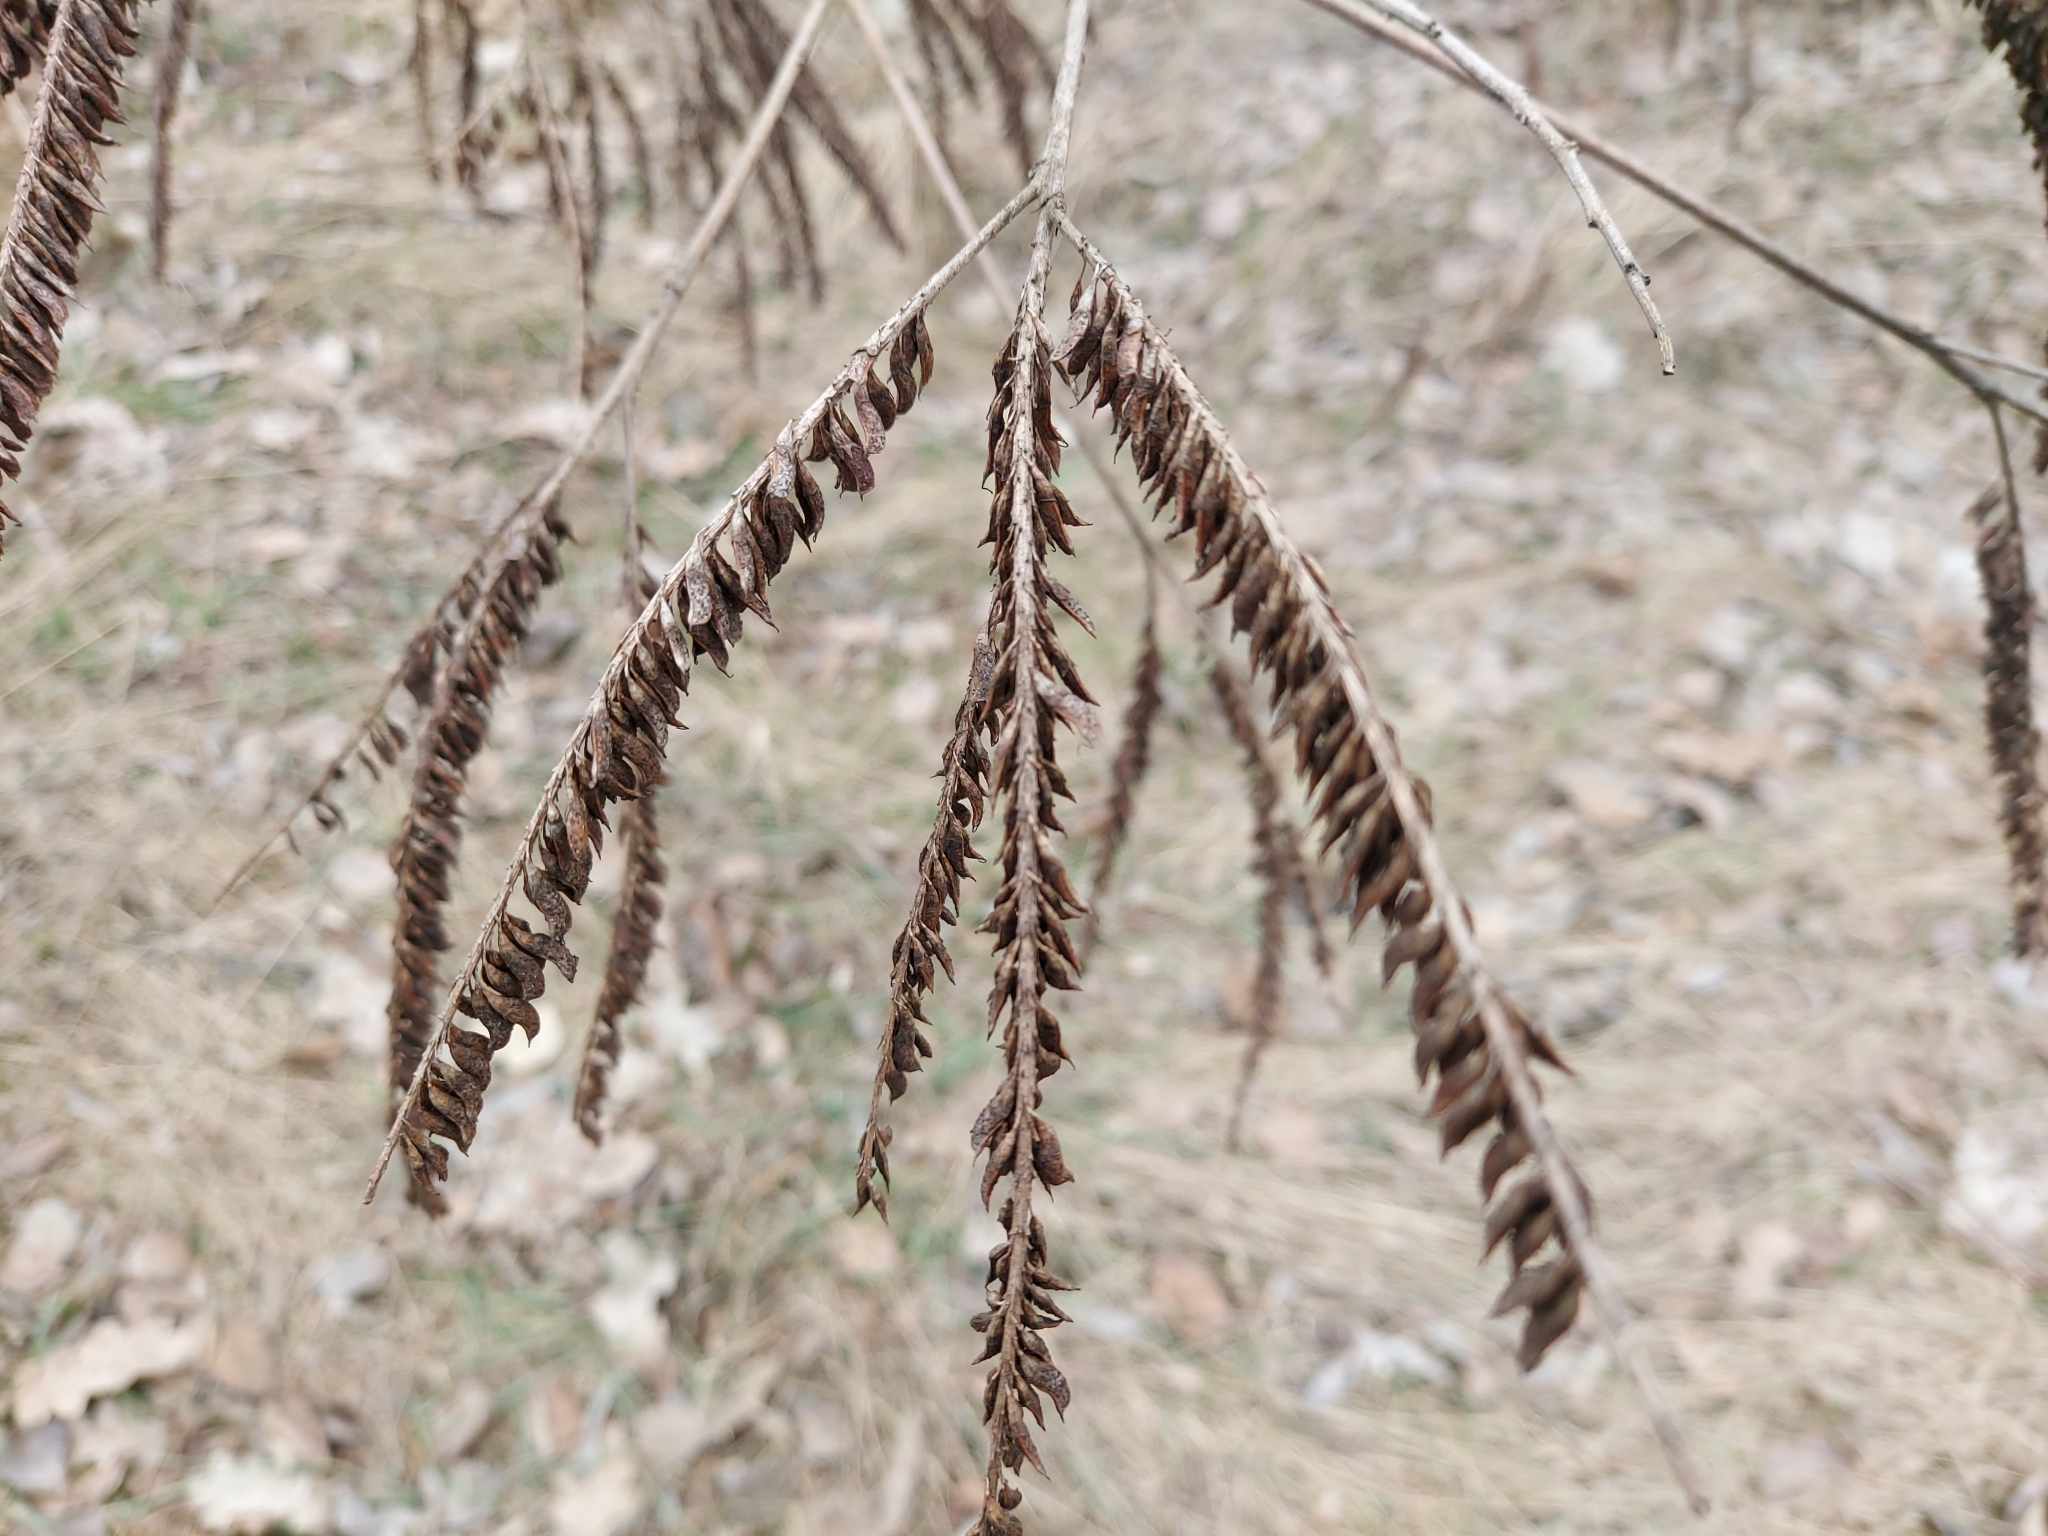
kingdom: Plantae
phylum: Tracheophyta
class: Magnoliopsida
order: Fabales
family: Fabaceae
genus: Amorpha
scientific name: Amorpha fruticosa
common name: False indigo
